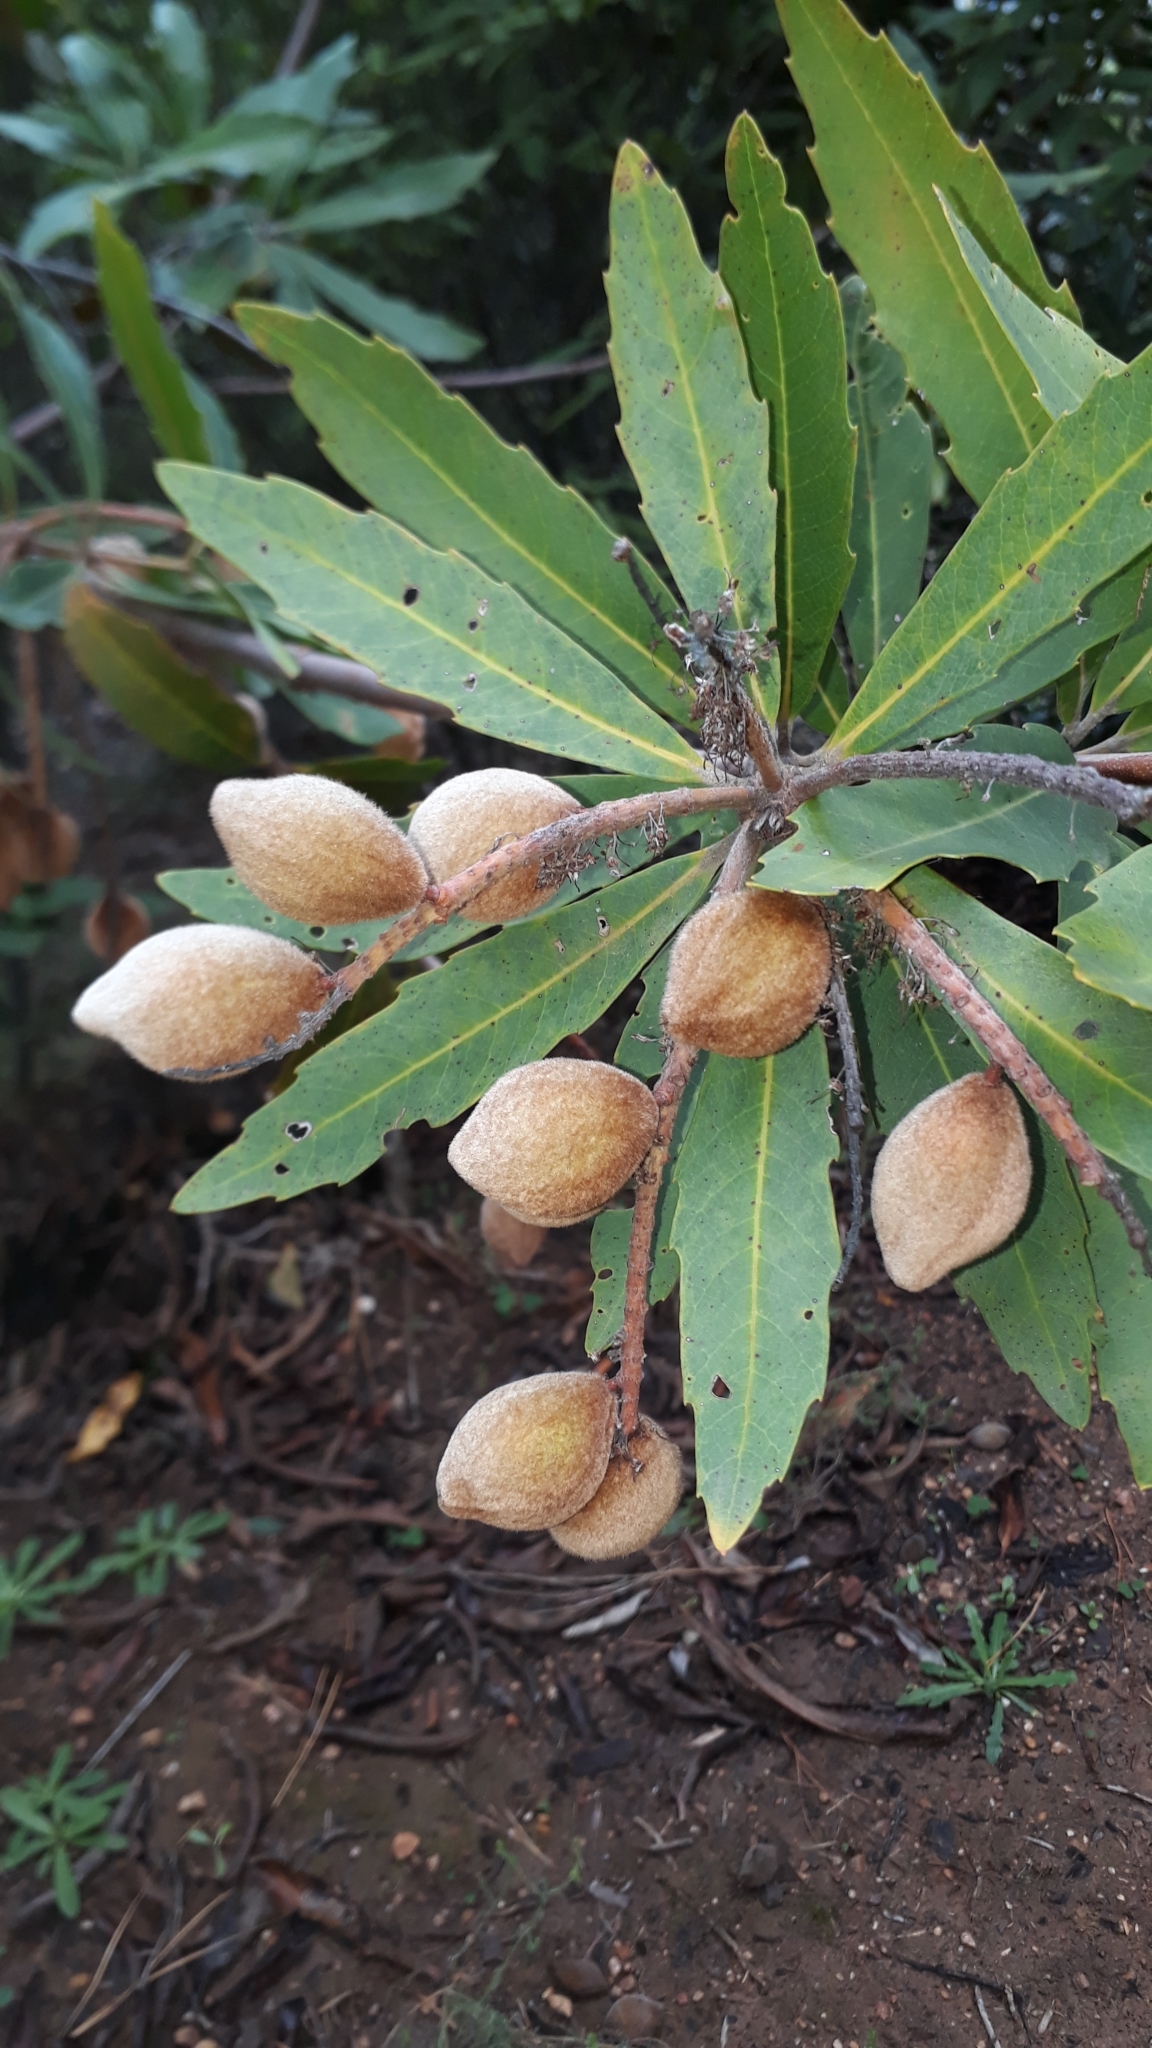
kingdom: Plantae
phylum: Tracheophyta
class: Magnoliopsida
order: Proteales
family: Proteaceae
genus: Brabejum
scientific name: Brabejum stellatifolium
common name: Wild almond
